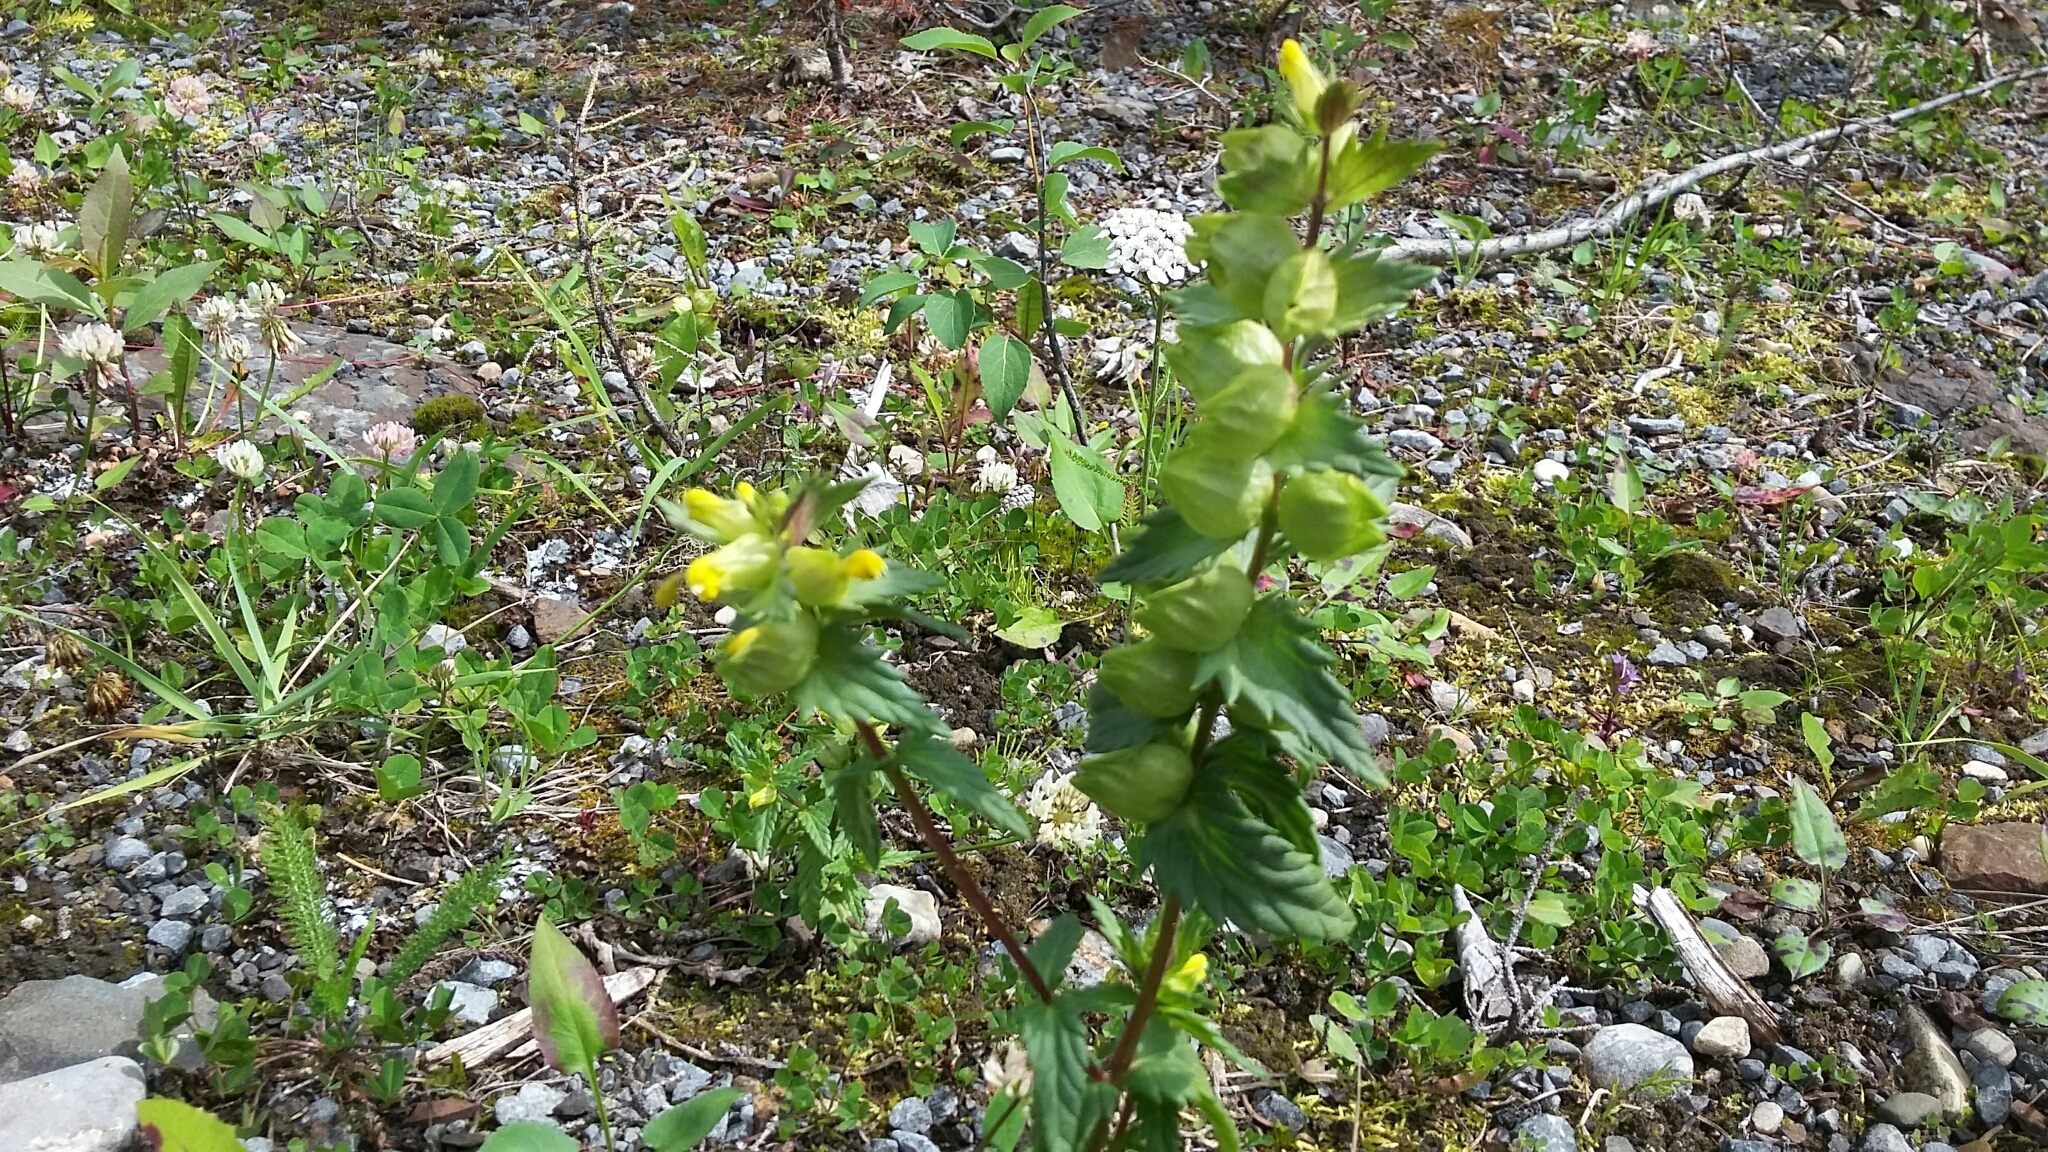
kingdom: Plantae
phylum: Tracheophyta
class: Magnoliopsida
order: Lamiales
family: Orobanchaceae
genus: Rhinanthus
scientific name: Rhinanthus groenlandicus
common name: Little yellow rattle
